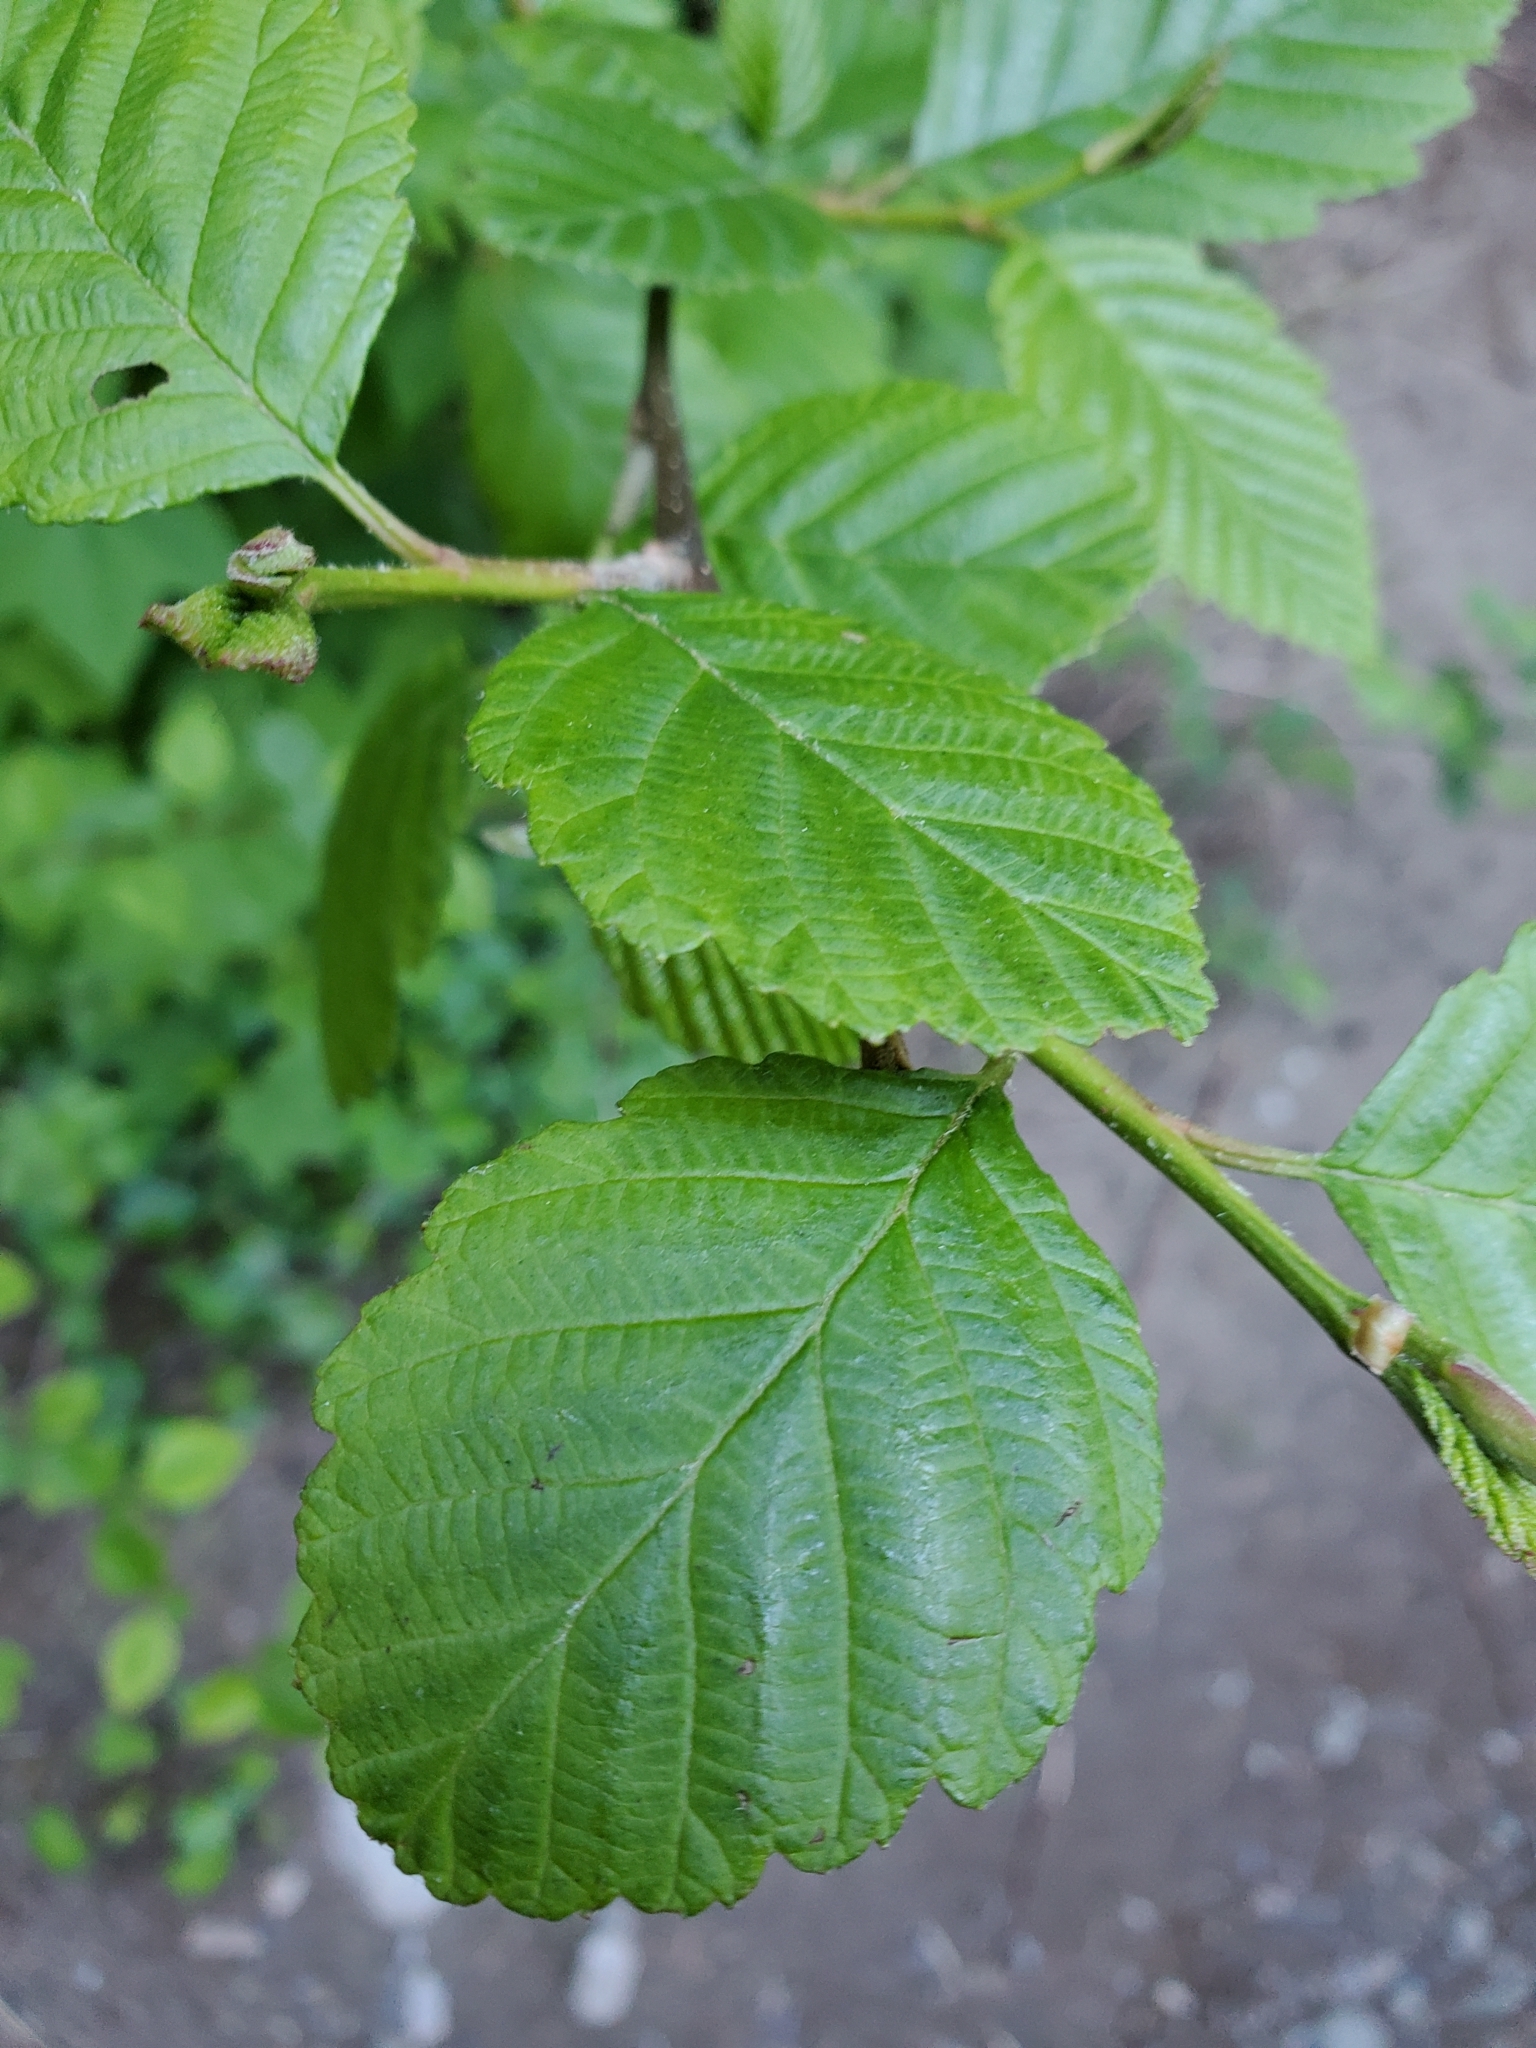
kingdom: Plantae
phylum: Tracheophyta
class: Magnoliopsida
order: Fagales
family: Betulaceae
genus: Alnus
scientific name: Alnus rubra
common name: Red alder
